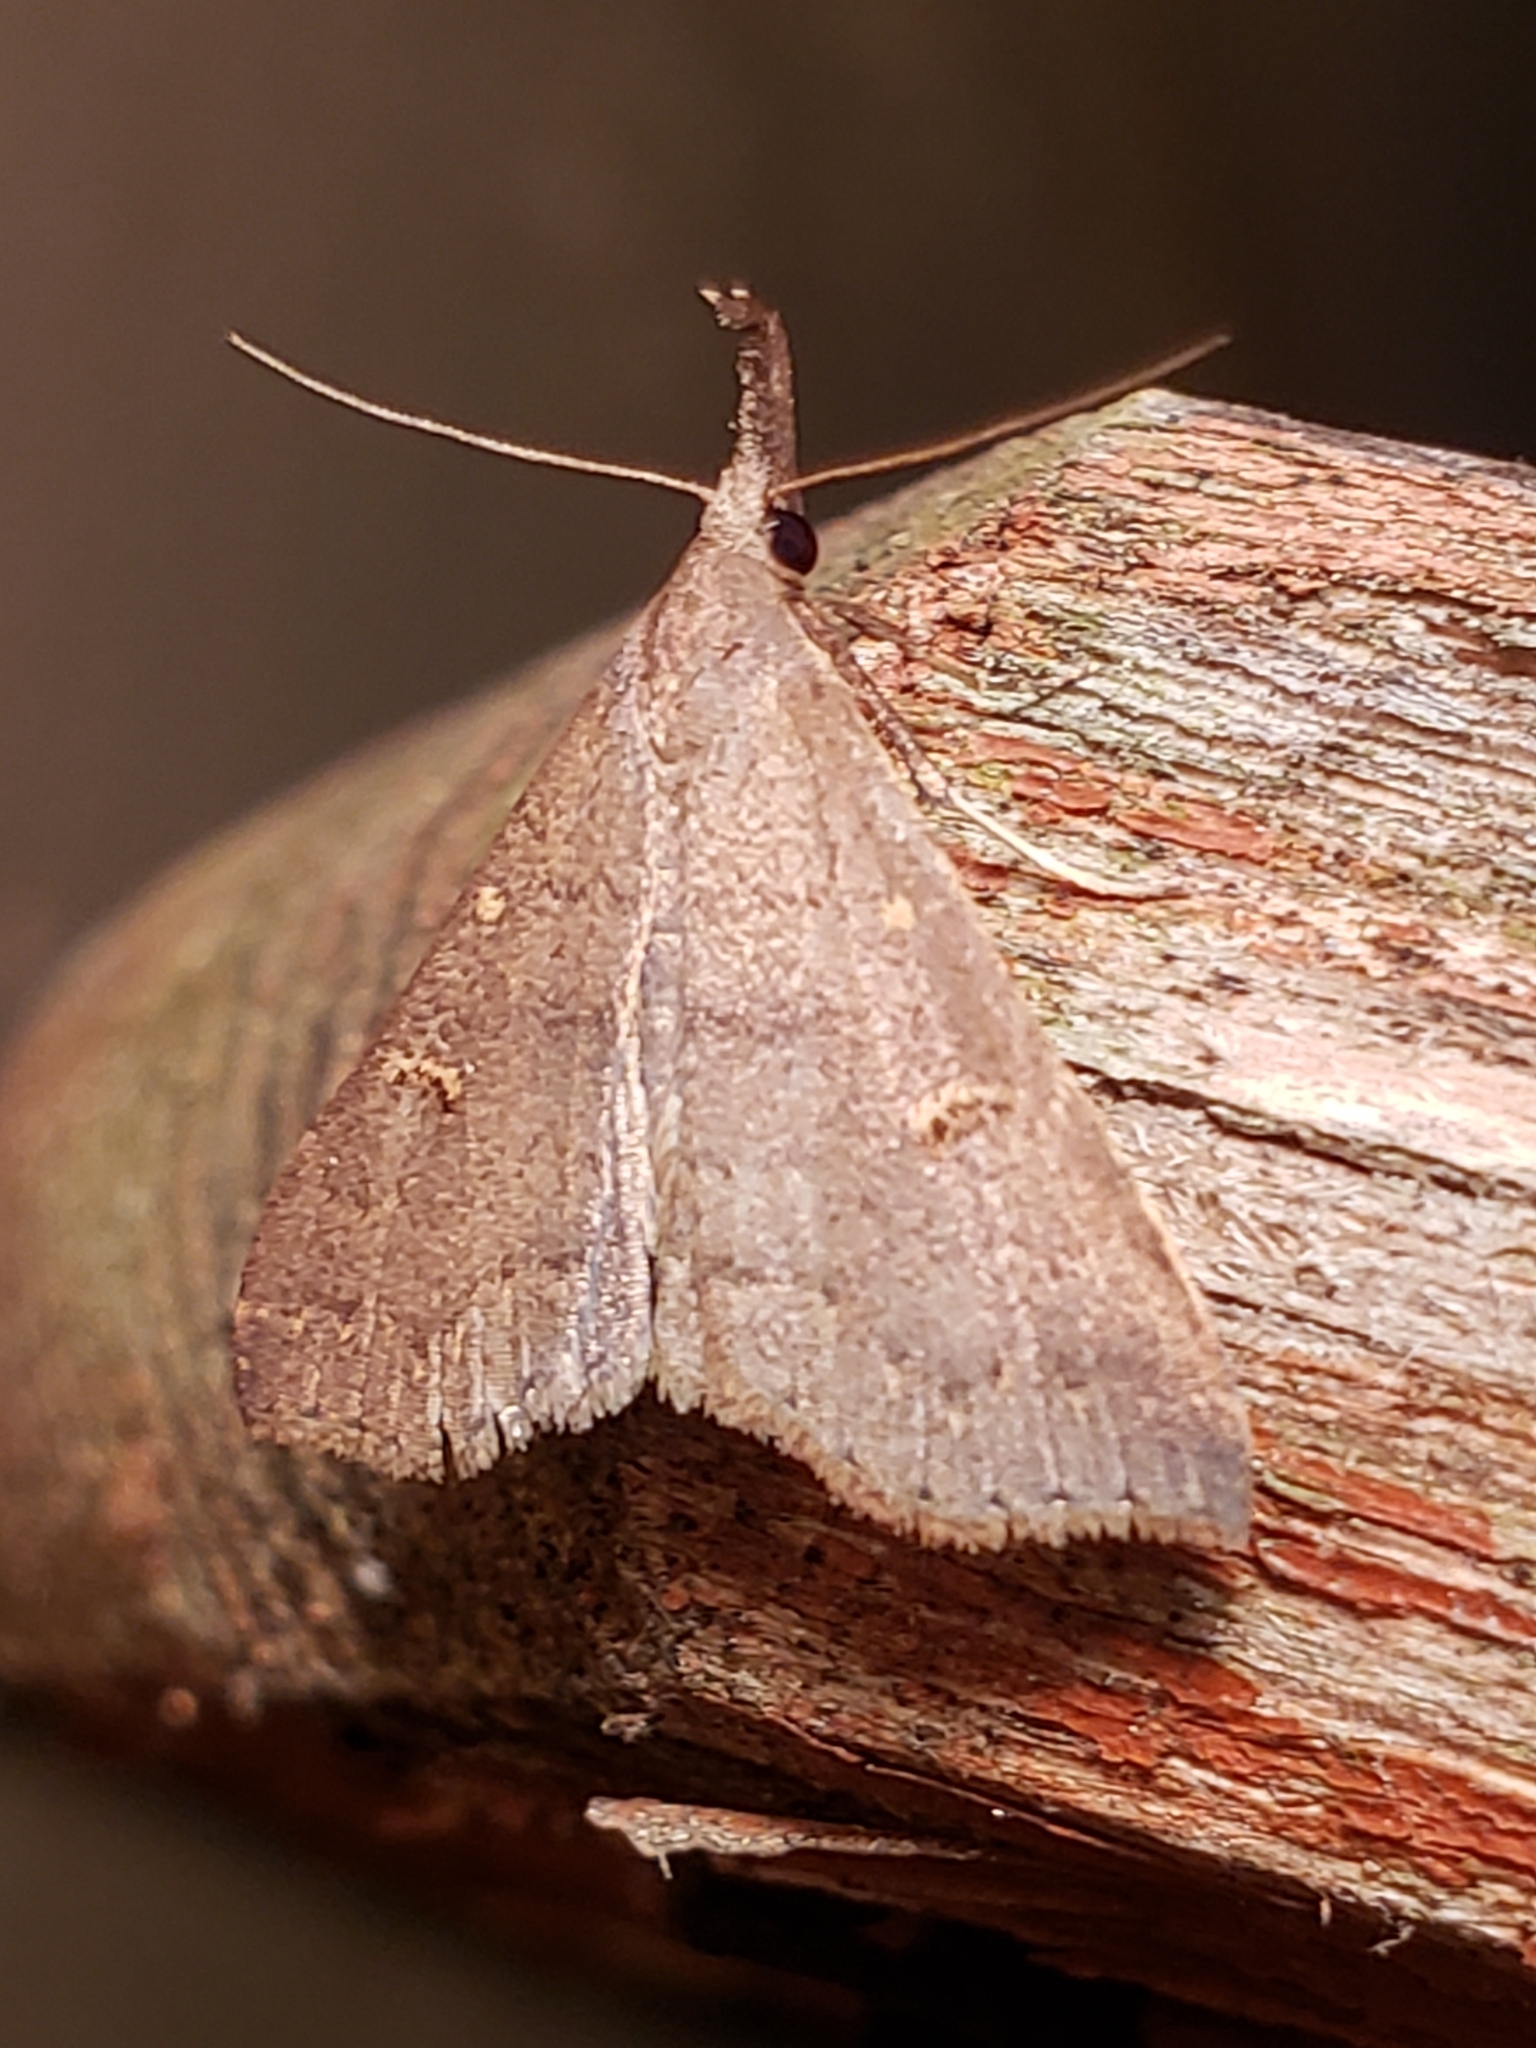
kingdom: Animalia
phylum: Arthropoda
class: Insecta
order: Lepidoptera
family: Erebidae
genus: Renia
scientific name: Renia adspergillus
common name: Speckled renia moth
